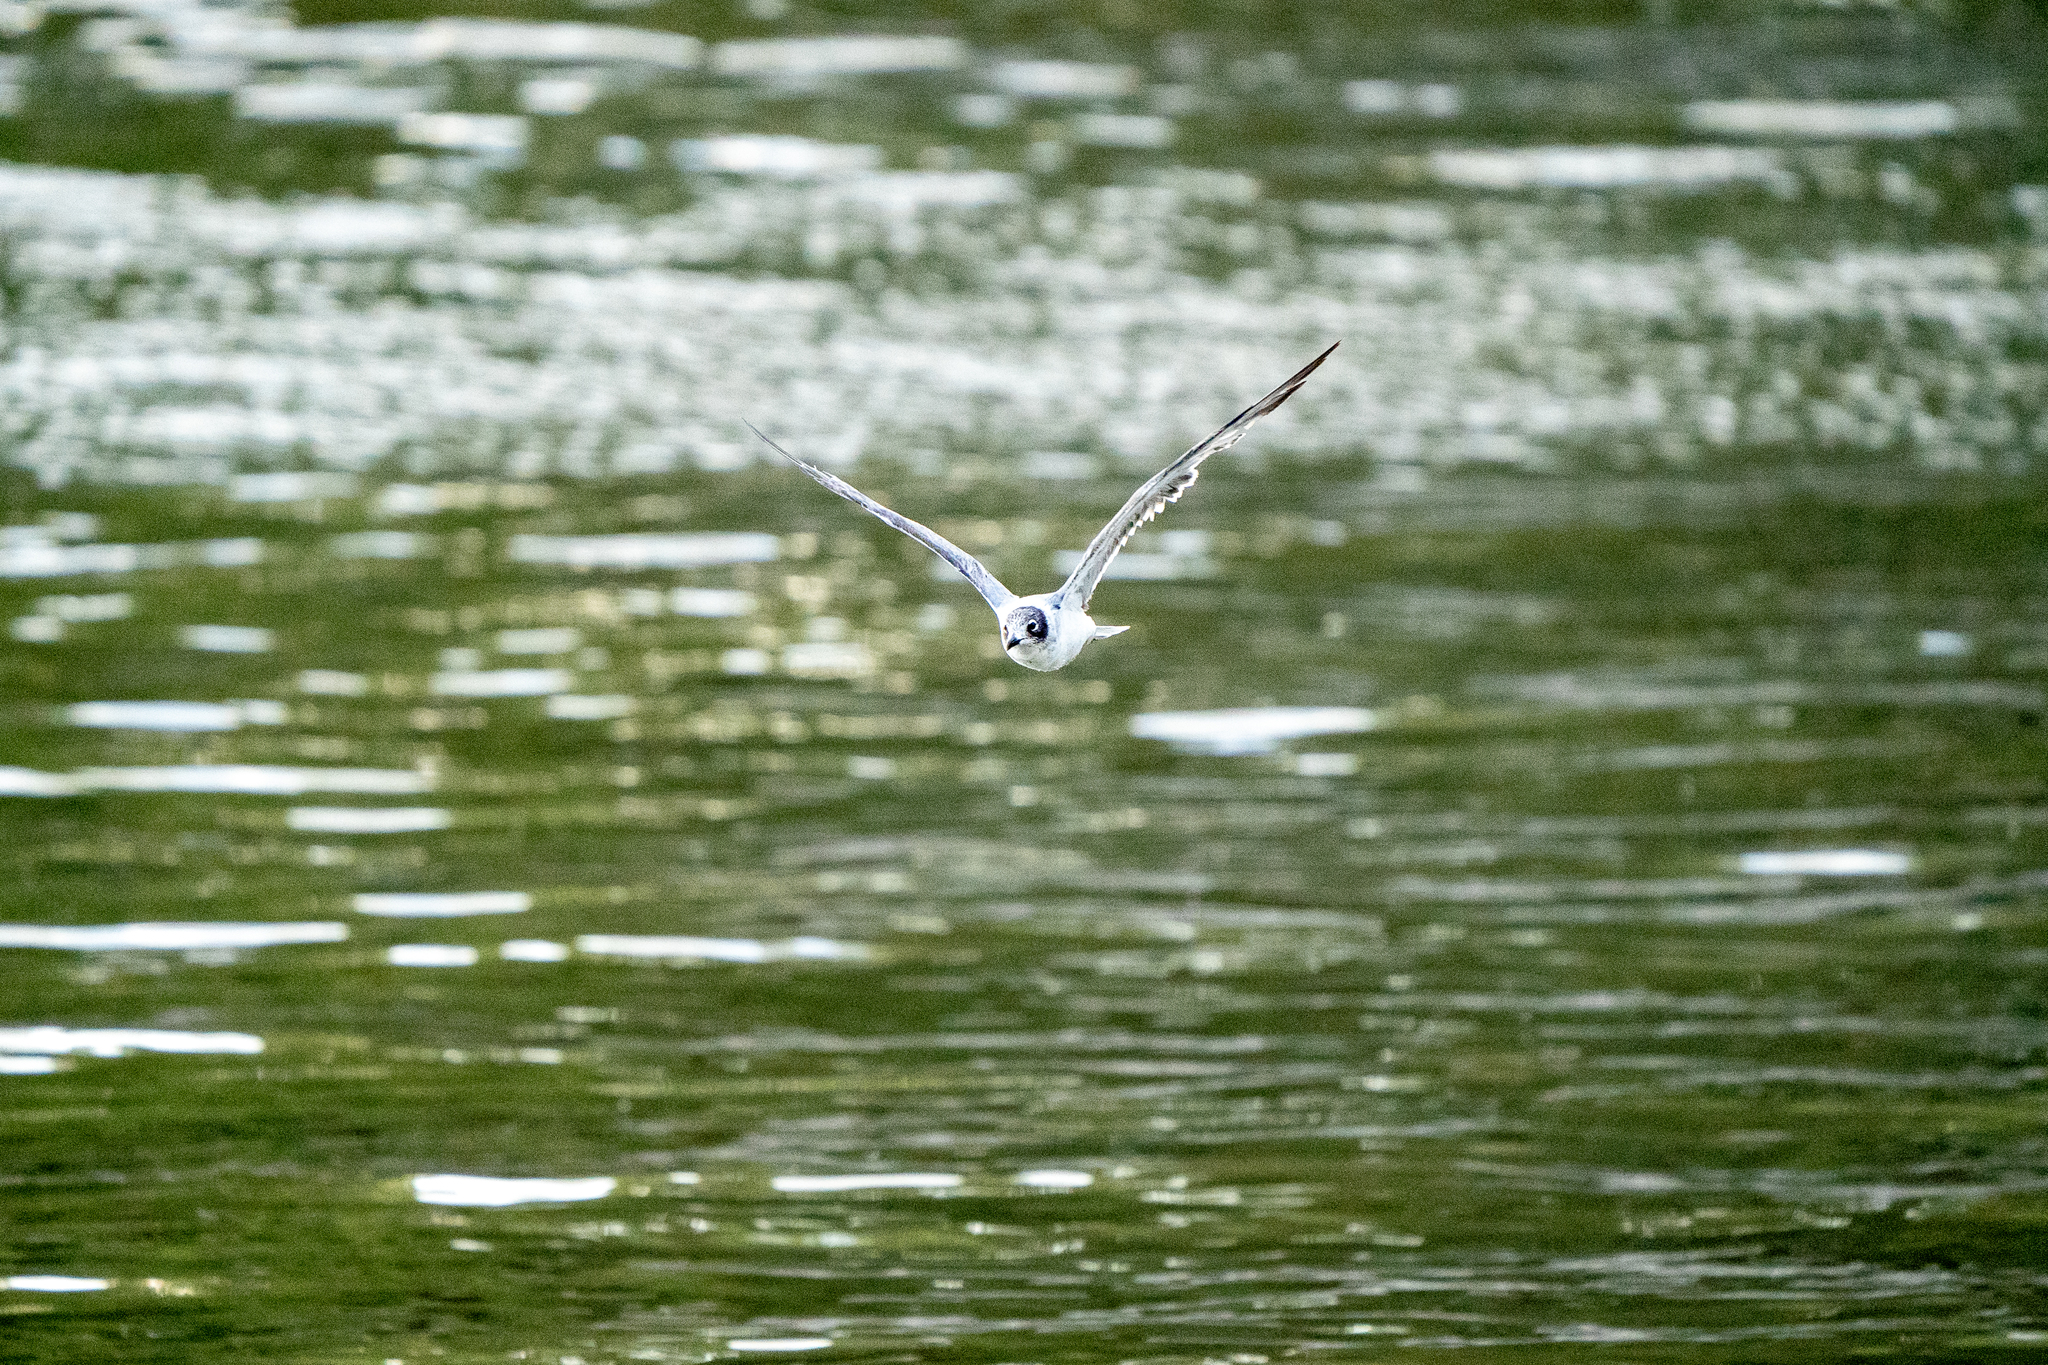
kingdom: Animalia
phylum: Chordata
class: Aves
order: Charadriiformes
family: Laridae
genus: Leucophaeus
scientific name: Leucophaeus pipixcan
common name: Franklin's gull
